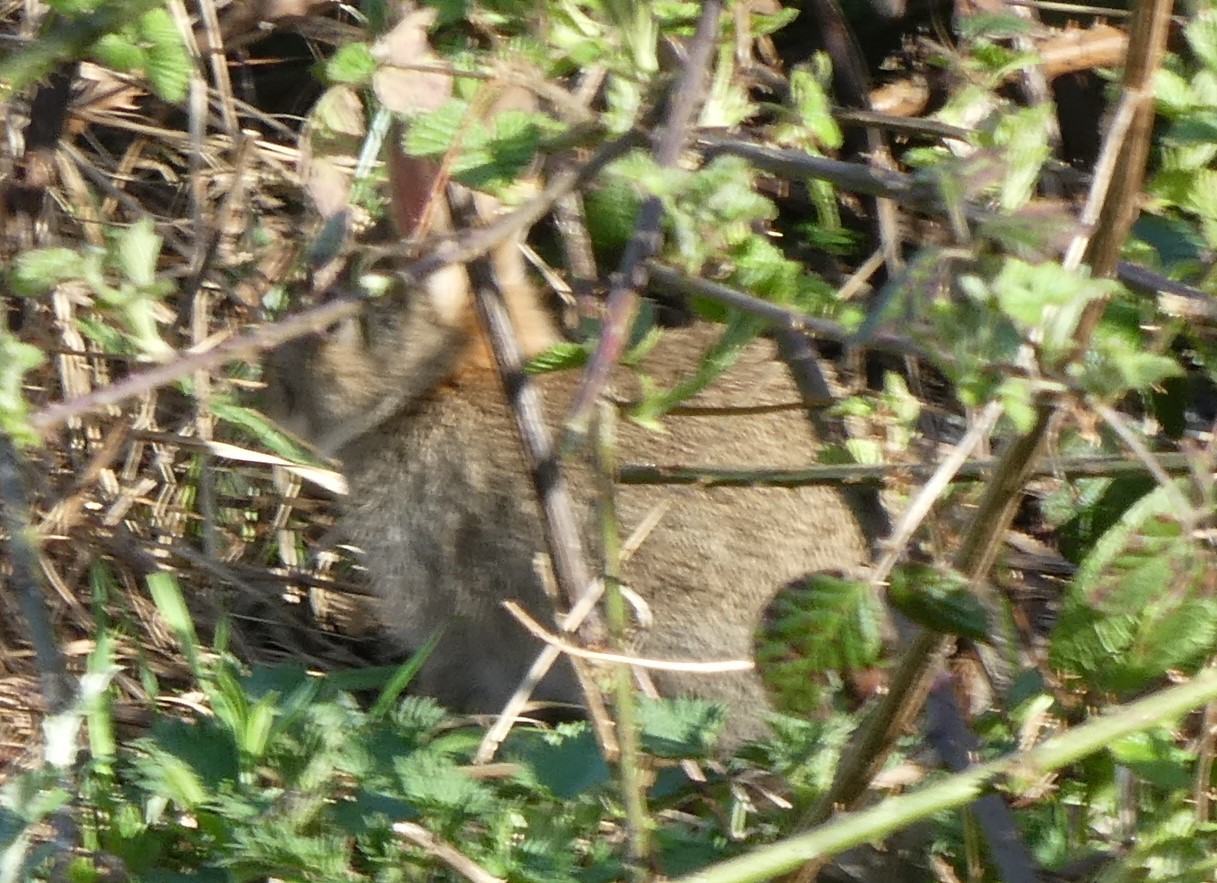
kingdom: Animalia
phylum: Chordata
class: Mammalia
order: Lagomorpha
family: Leporidae
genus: Oryctolagus
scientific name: Oryctolagus cuniculus
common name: European rabbit
